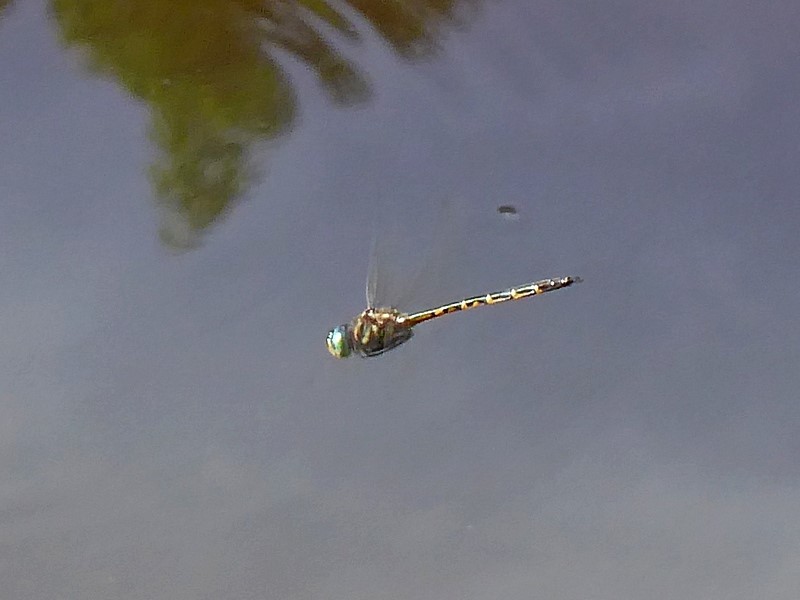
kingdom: Animalia
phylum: Arthropoda
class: Insecta
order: Odonata
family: Corduliidae
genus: Hemicordulia
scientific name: Hemicordulia australiae
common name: Sentry dragonfly
